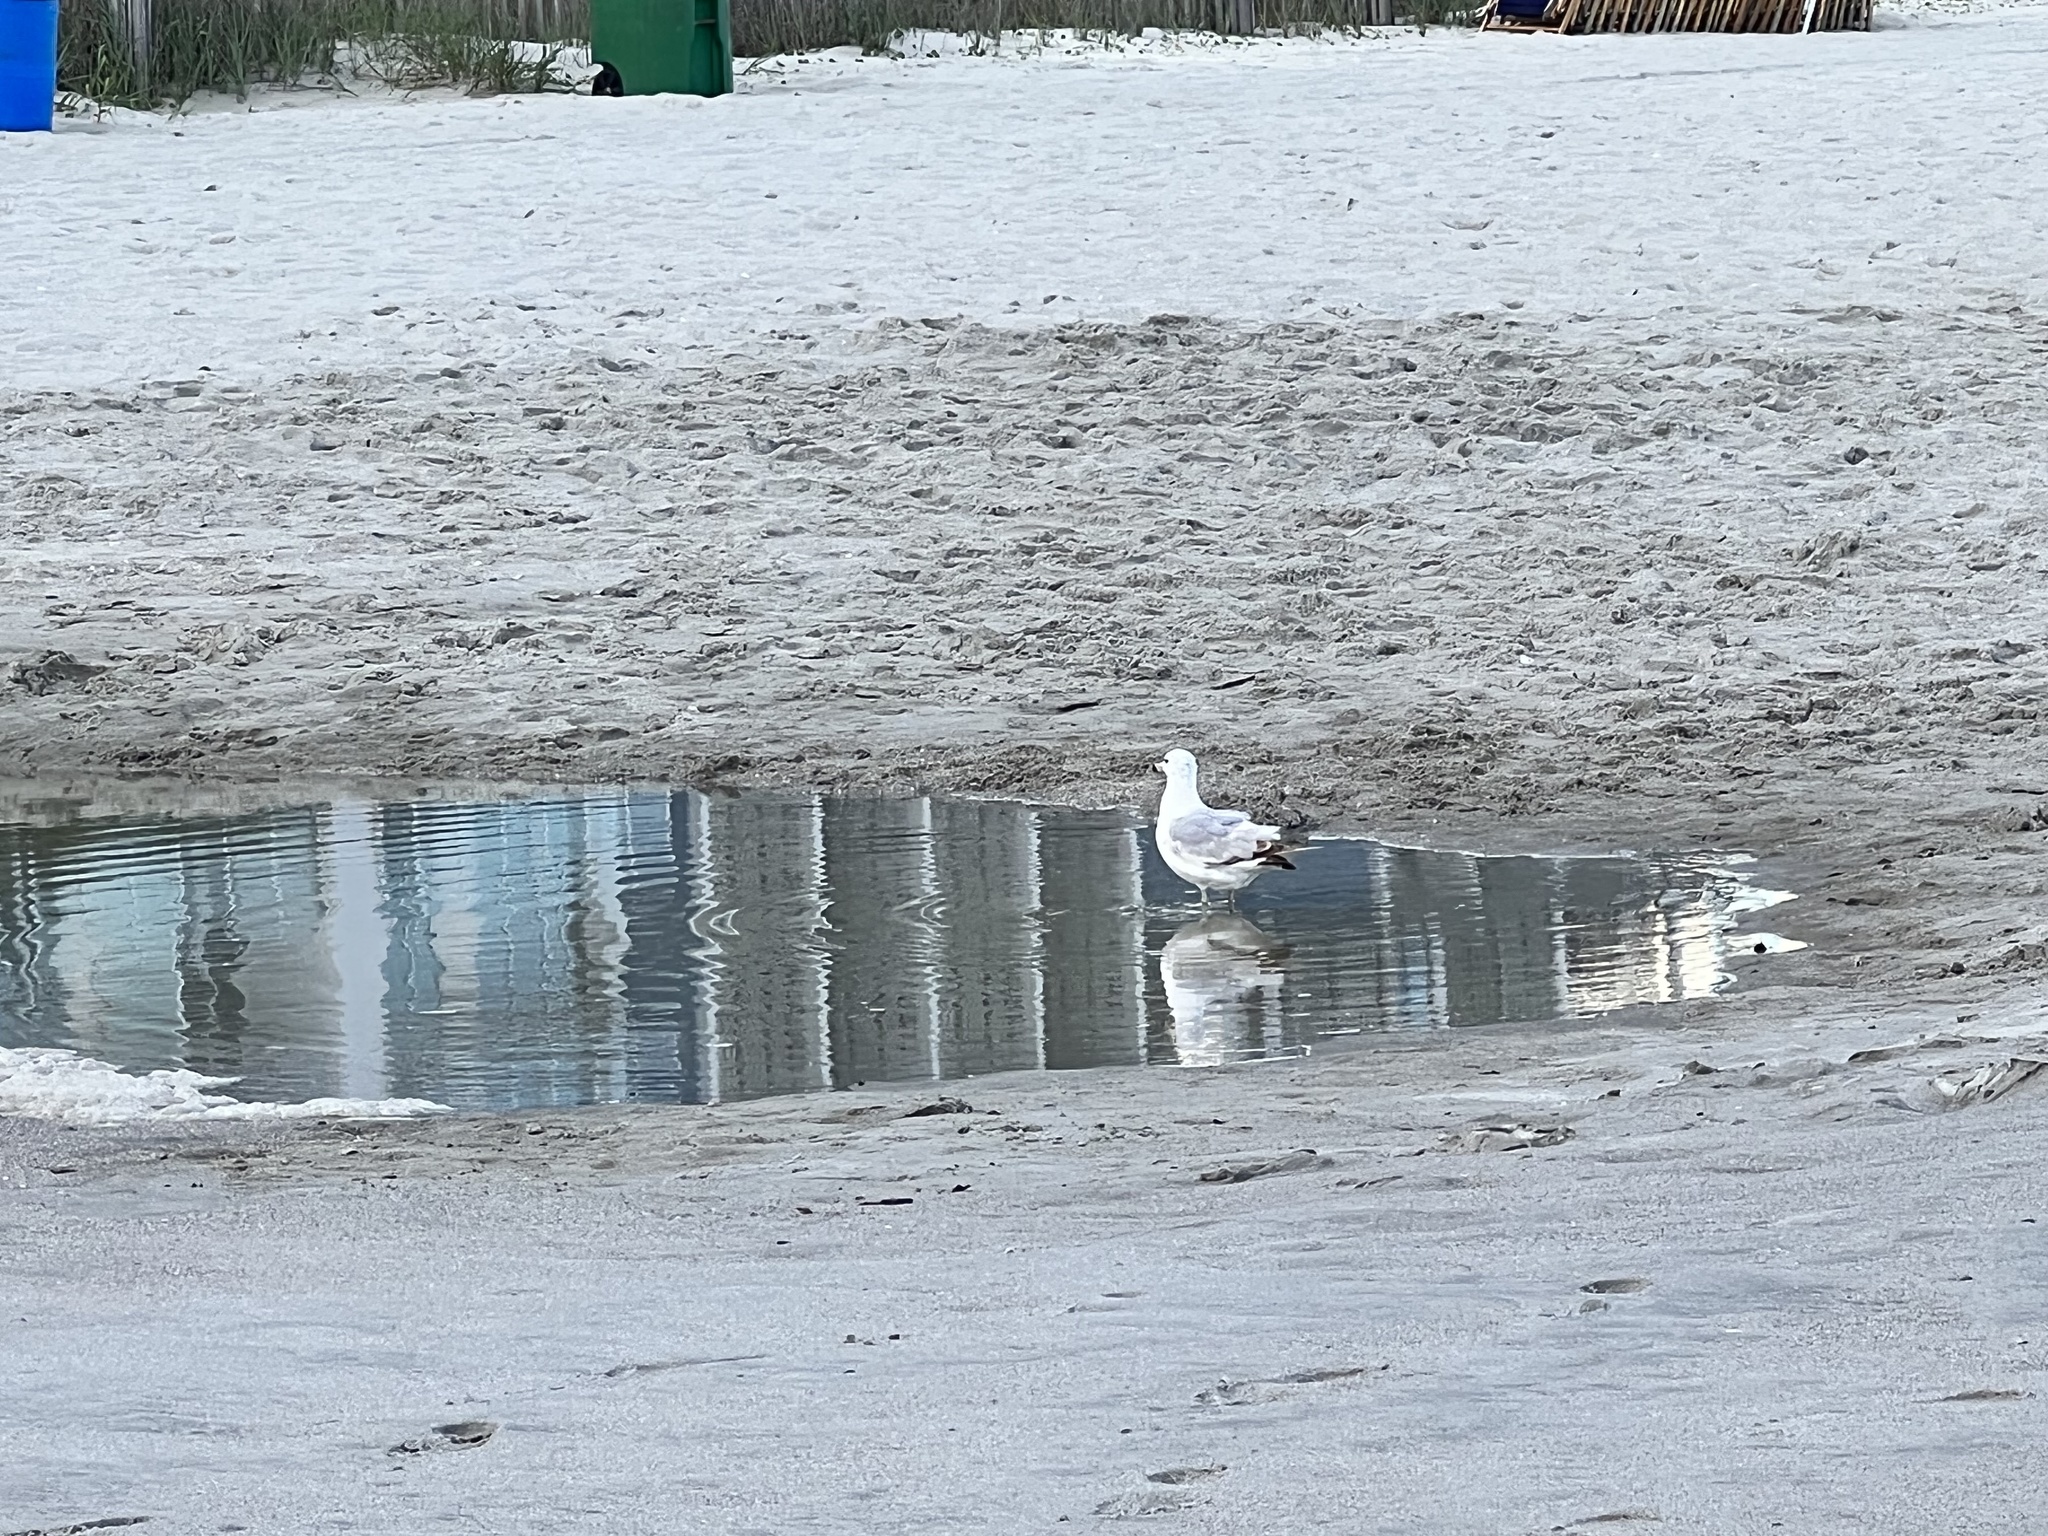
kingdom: Animalia
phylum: Chordata
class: Aves
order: Charadriiformes
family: Laridae
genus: Larus
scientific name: Larus delawarensis
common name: Ring-billed gull
